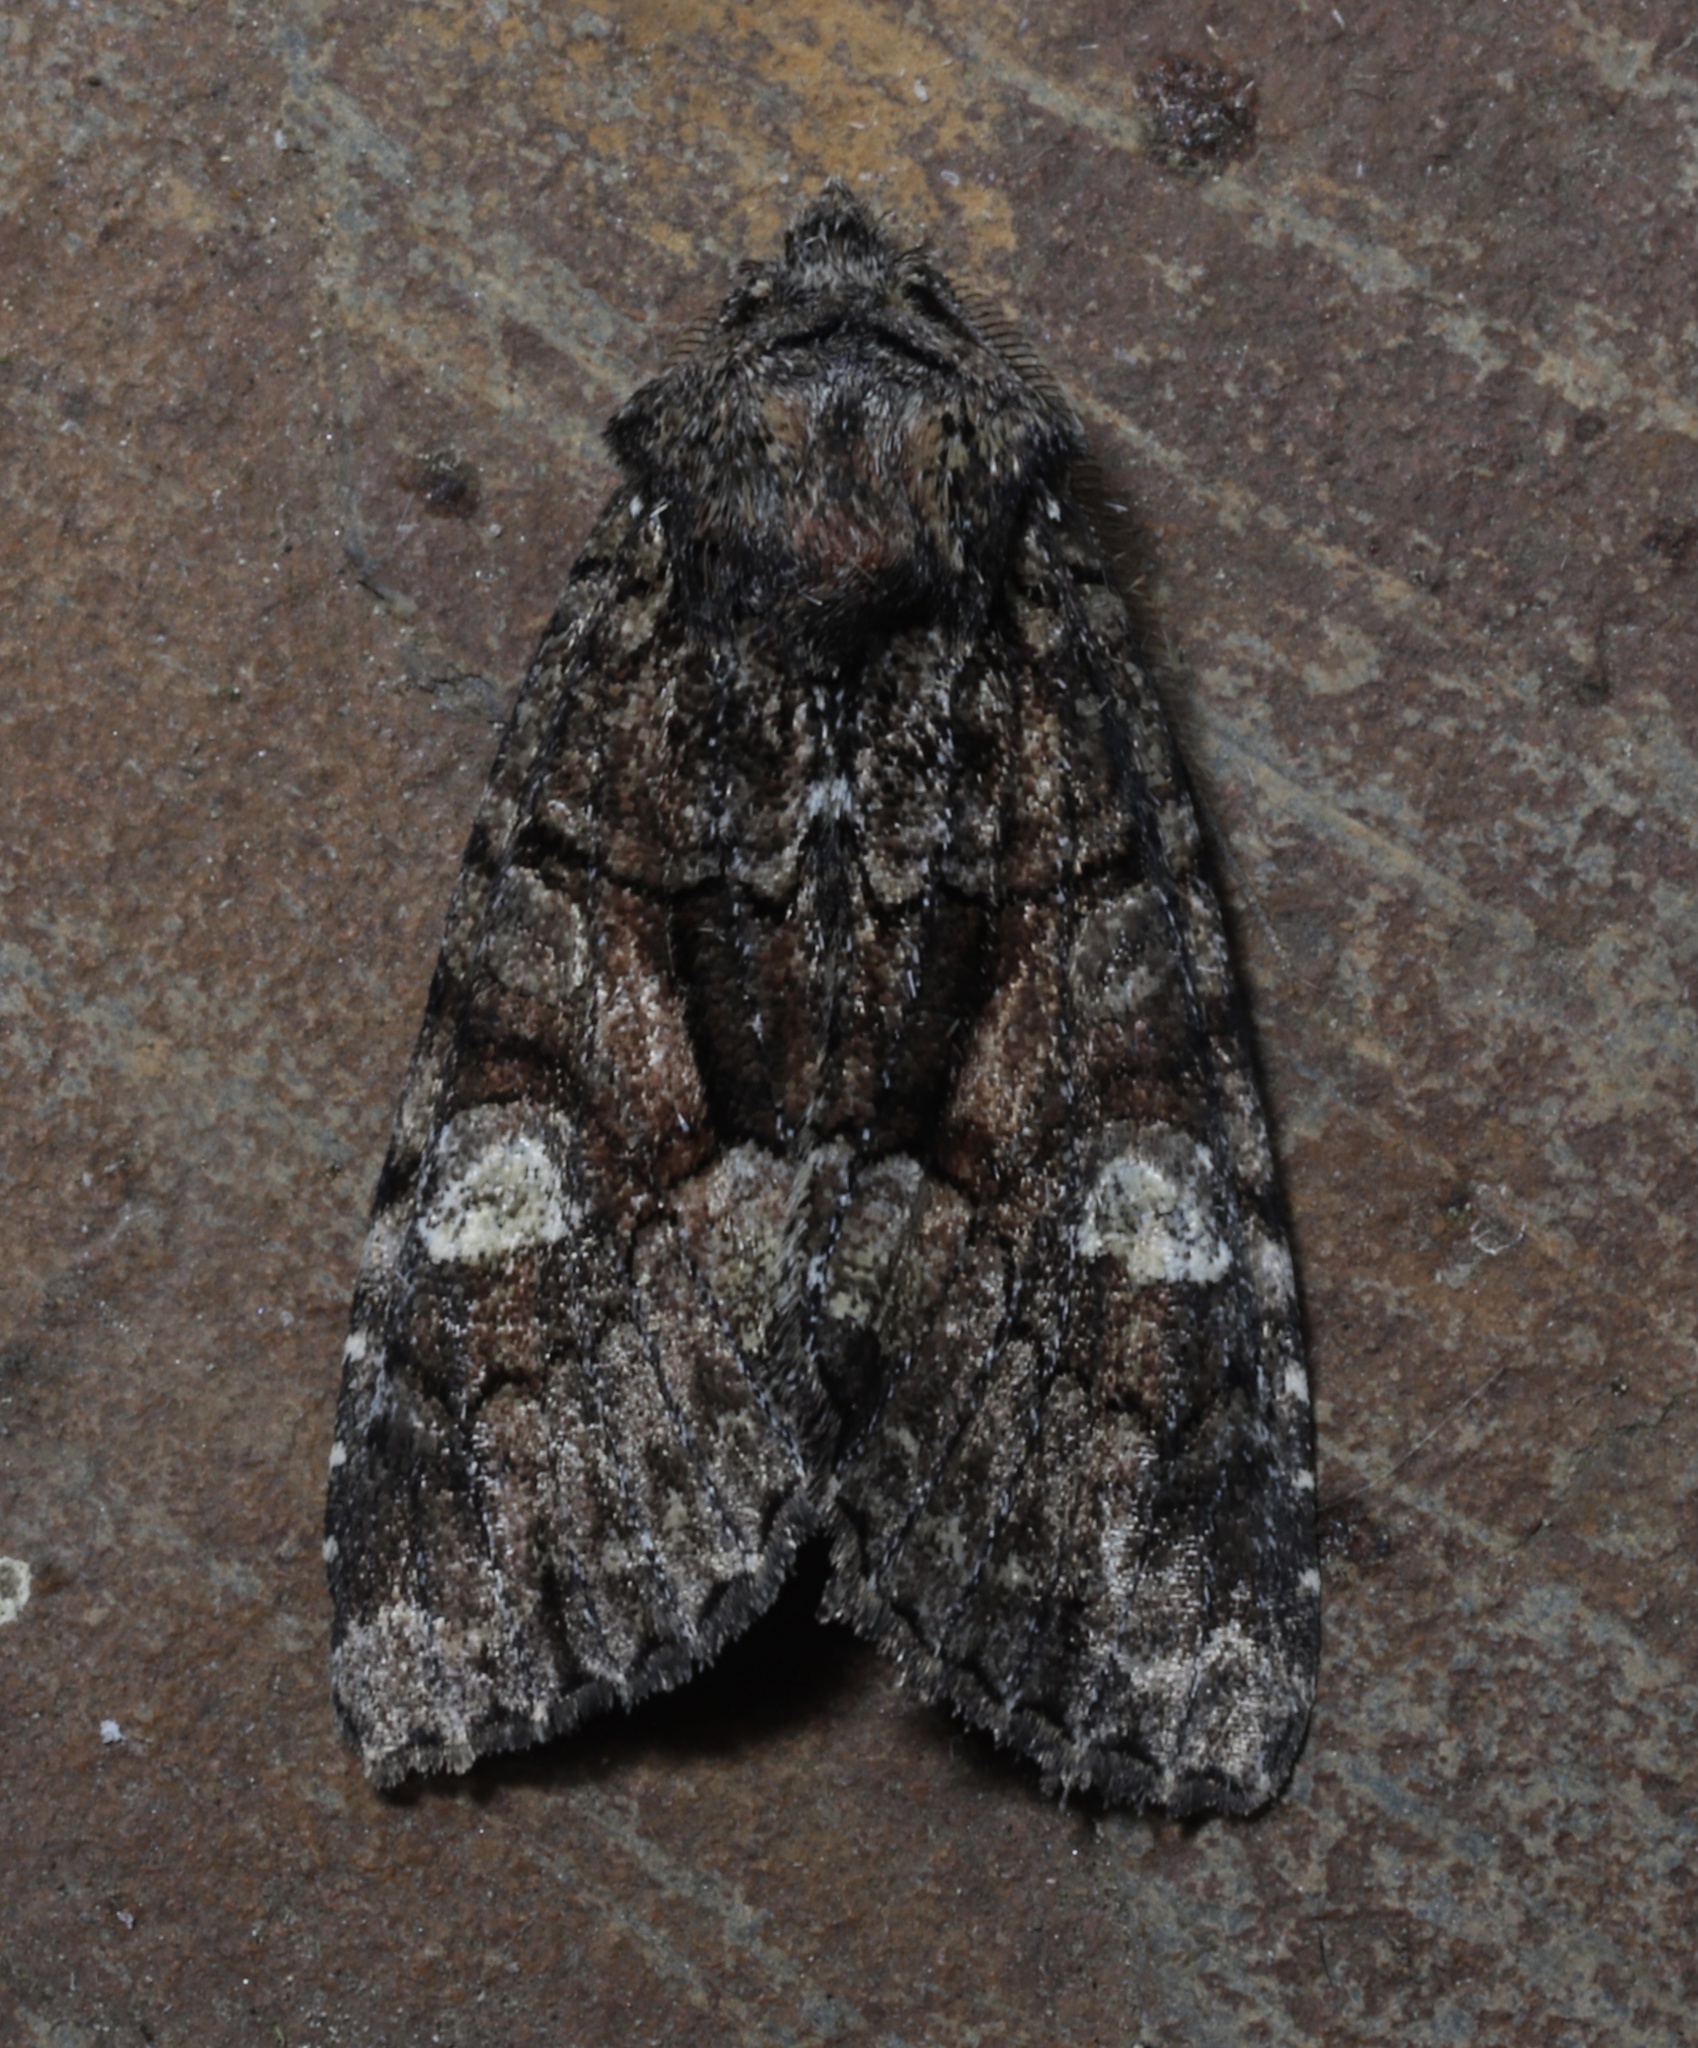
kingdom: Animalia
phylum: Arthropoda
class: Insecta
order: Lepidoptera
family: Noctuidae
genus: Fishia
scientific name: Fishia illocata
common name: Wandering brocade moth
